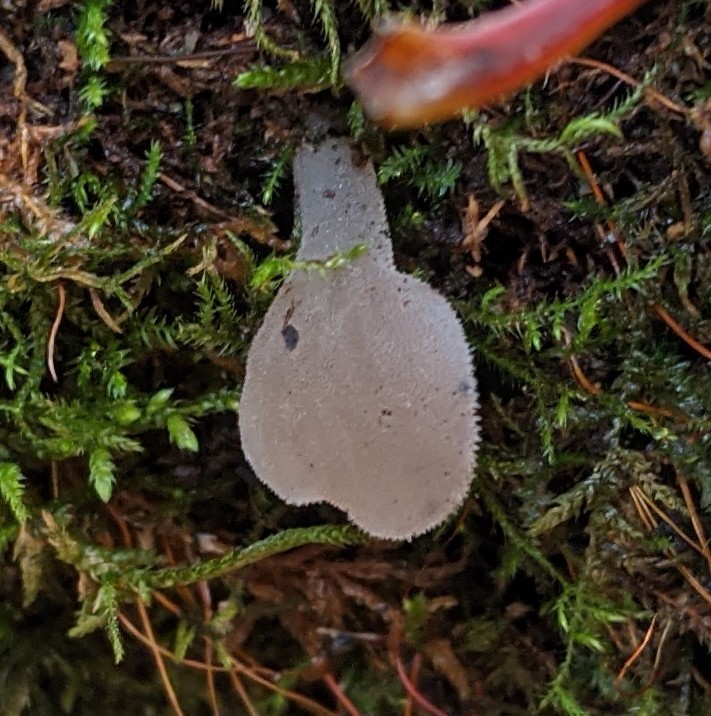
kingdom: Fungi
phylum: Basidiomycota
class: Agaricomycetes
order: Auriculariales
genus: Pseudohydnum
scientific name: Pseudohydnum gelatinosum
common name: Jelly tongue
